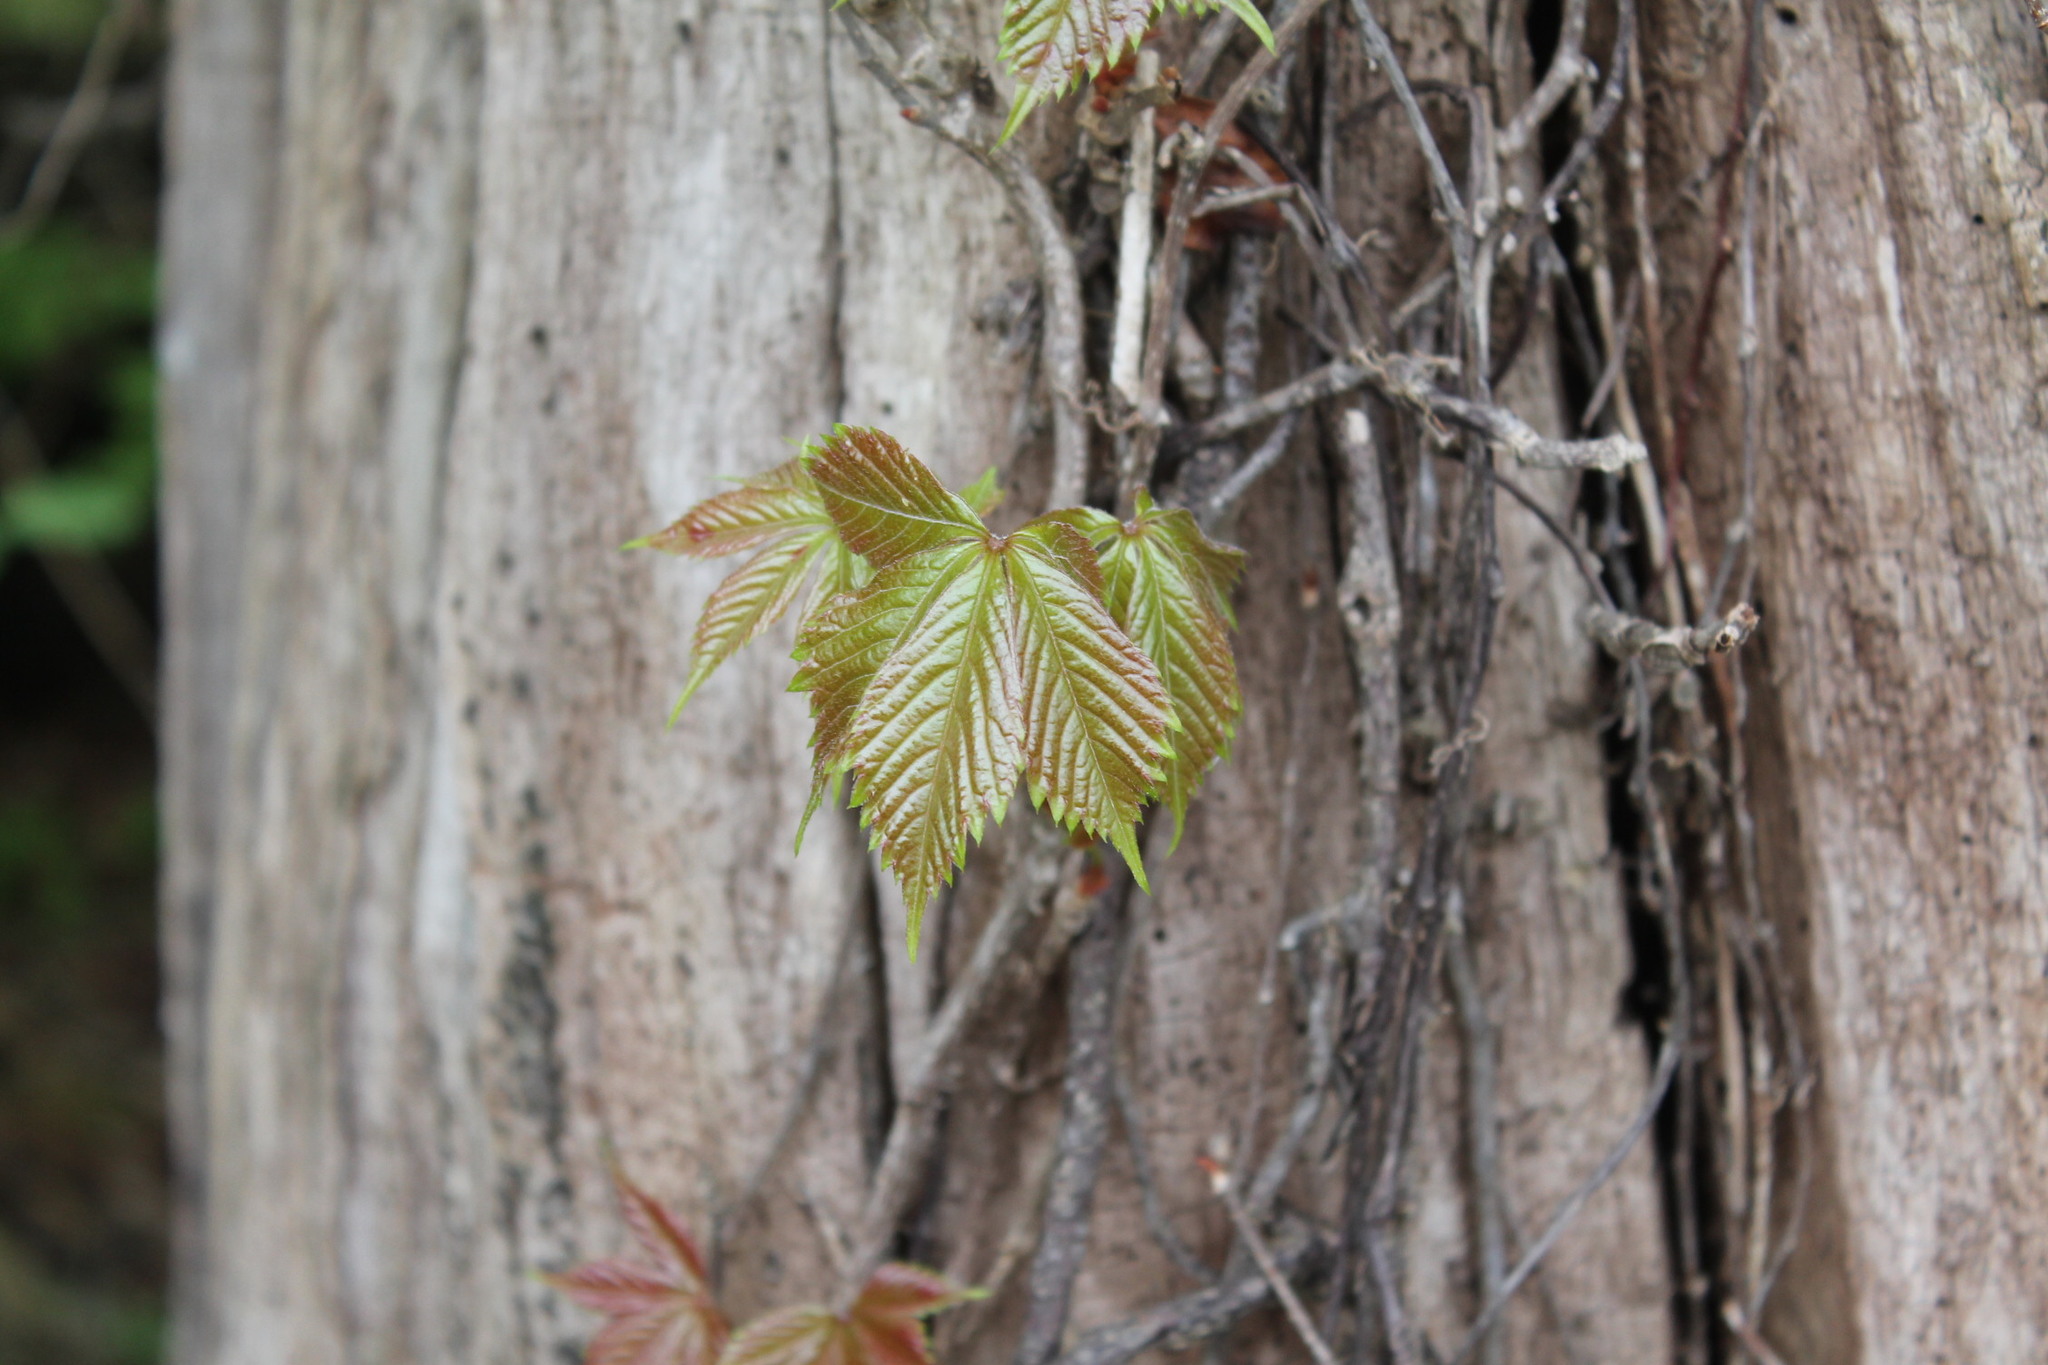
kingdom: Plantae
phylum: Tracheophyta
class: Magnoliopsida
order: Vitales
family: Vitaceae
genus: Parthenocissus
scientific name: Parthenocissus quinquefolia
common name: Virginia-creeper
